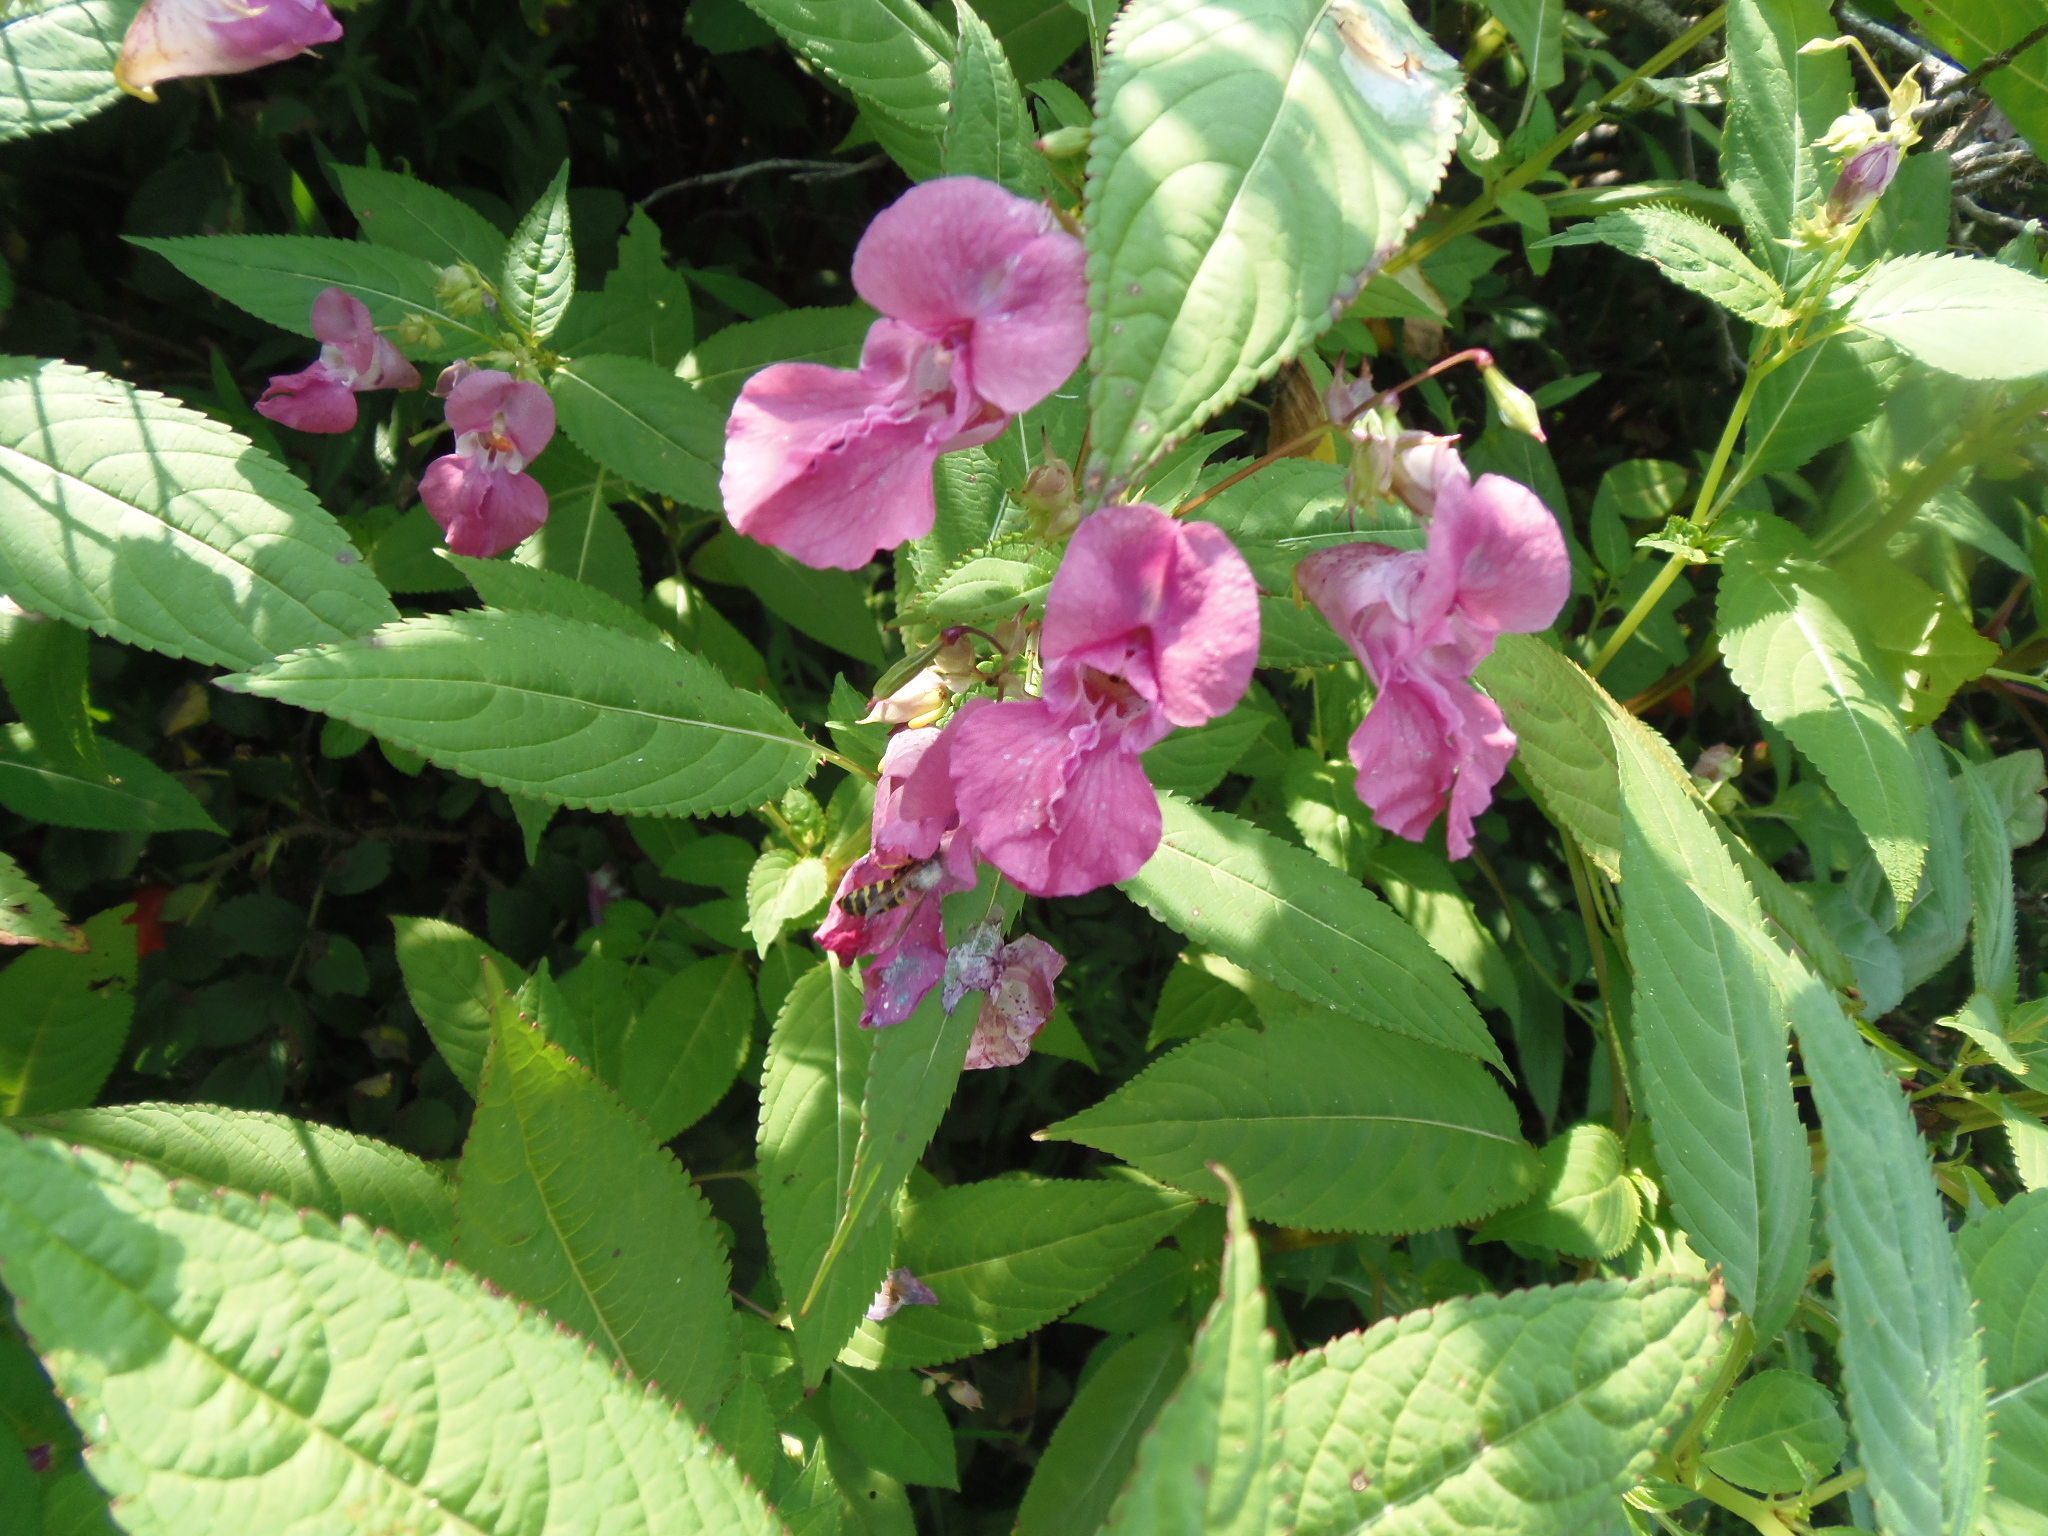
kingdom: Animalia
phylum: Arthropoda
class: Insecta
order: Hymenoptera
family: Vespidae
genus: Vespula
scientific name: Vespula
